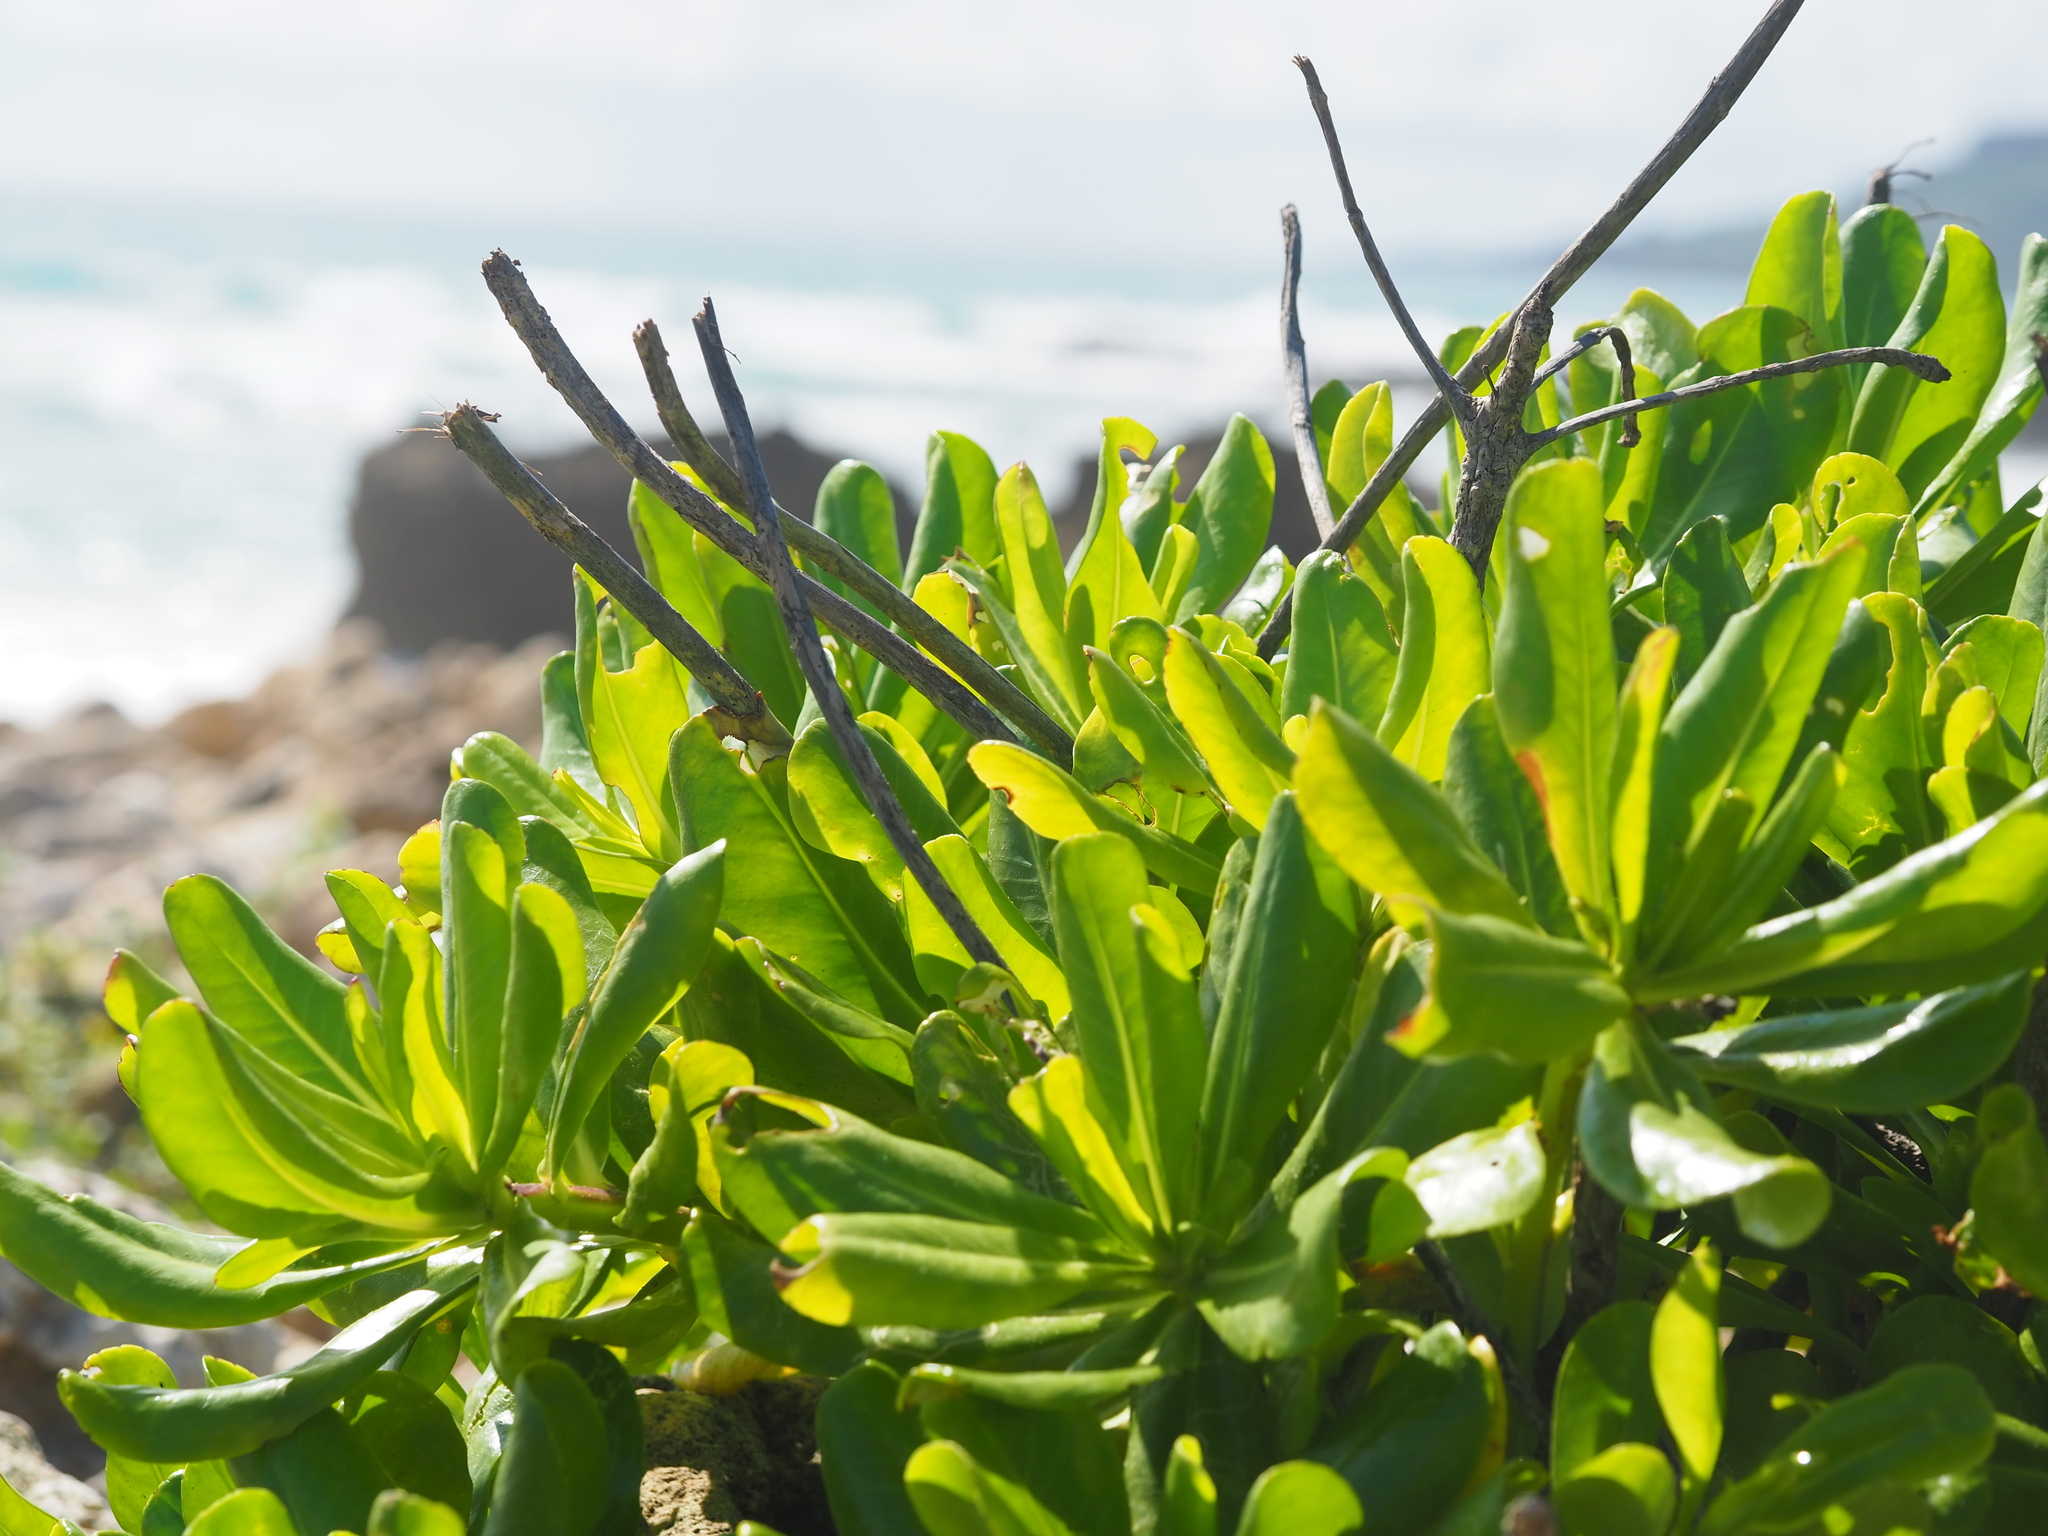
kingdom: Plantae
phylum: Tracheophyta
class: Magnoliopsida
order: Asterales
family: Goodeniaceae
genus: Scaevola
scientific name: Scaevola taccada
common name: Sea lettucetree
